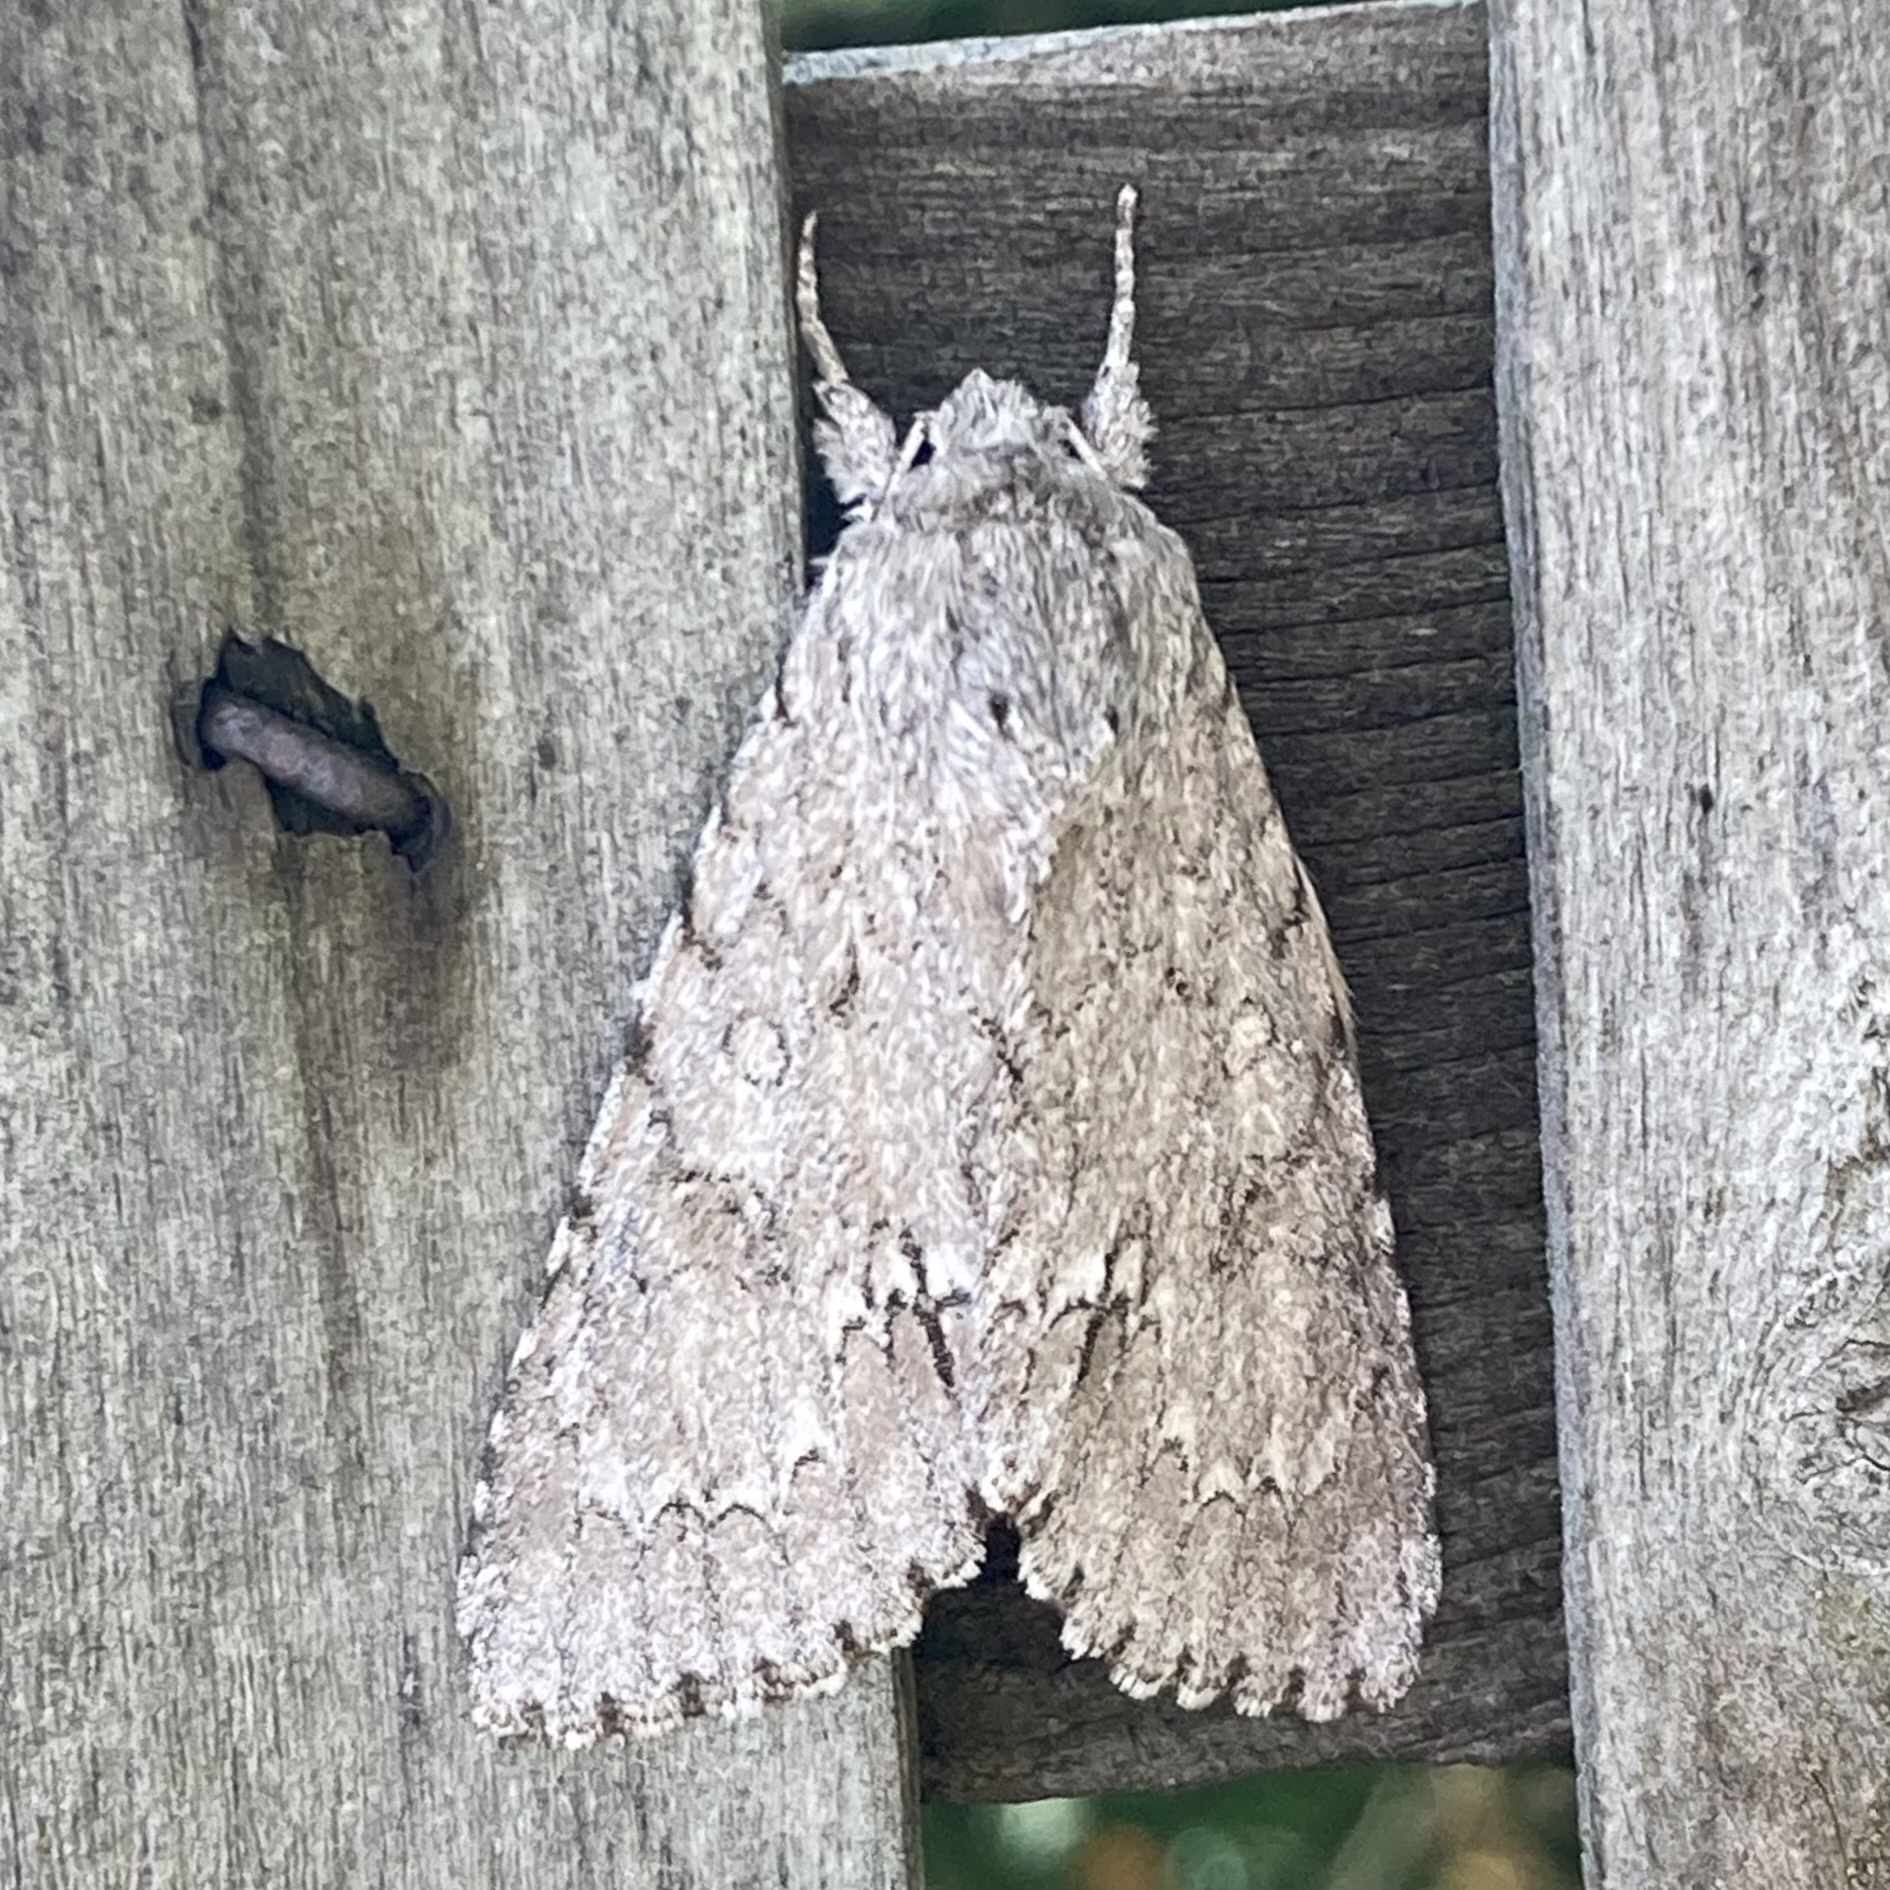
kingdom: Animalia
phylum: Arthropoda
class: Insecta
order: Lepidoptera
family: Noctuidae
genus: Acronicta
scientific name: Acronicta americana
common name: American dagger
